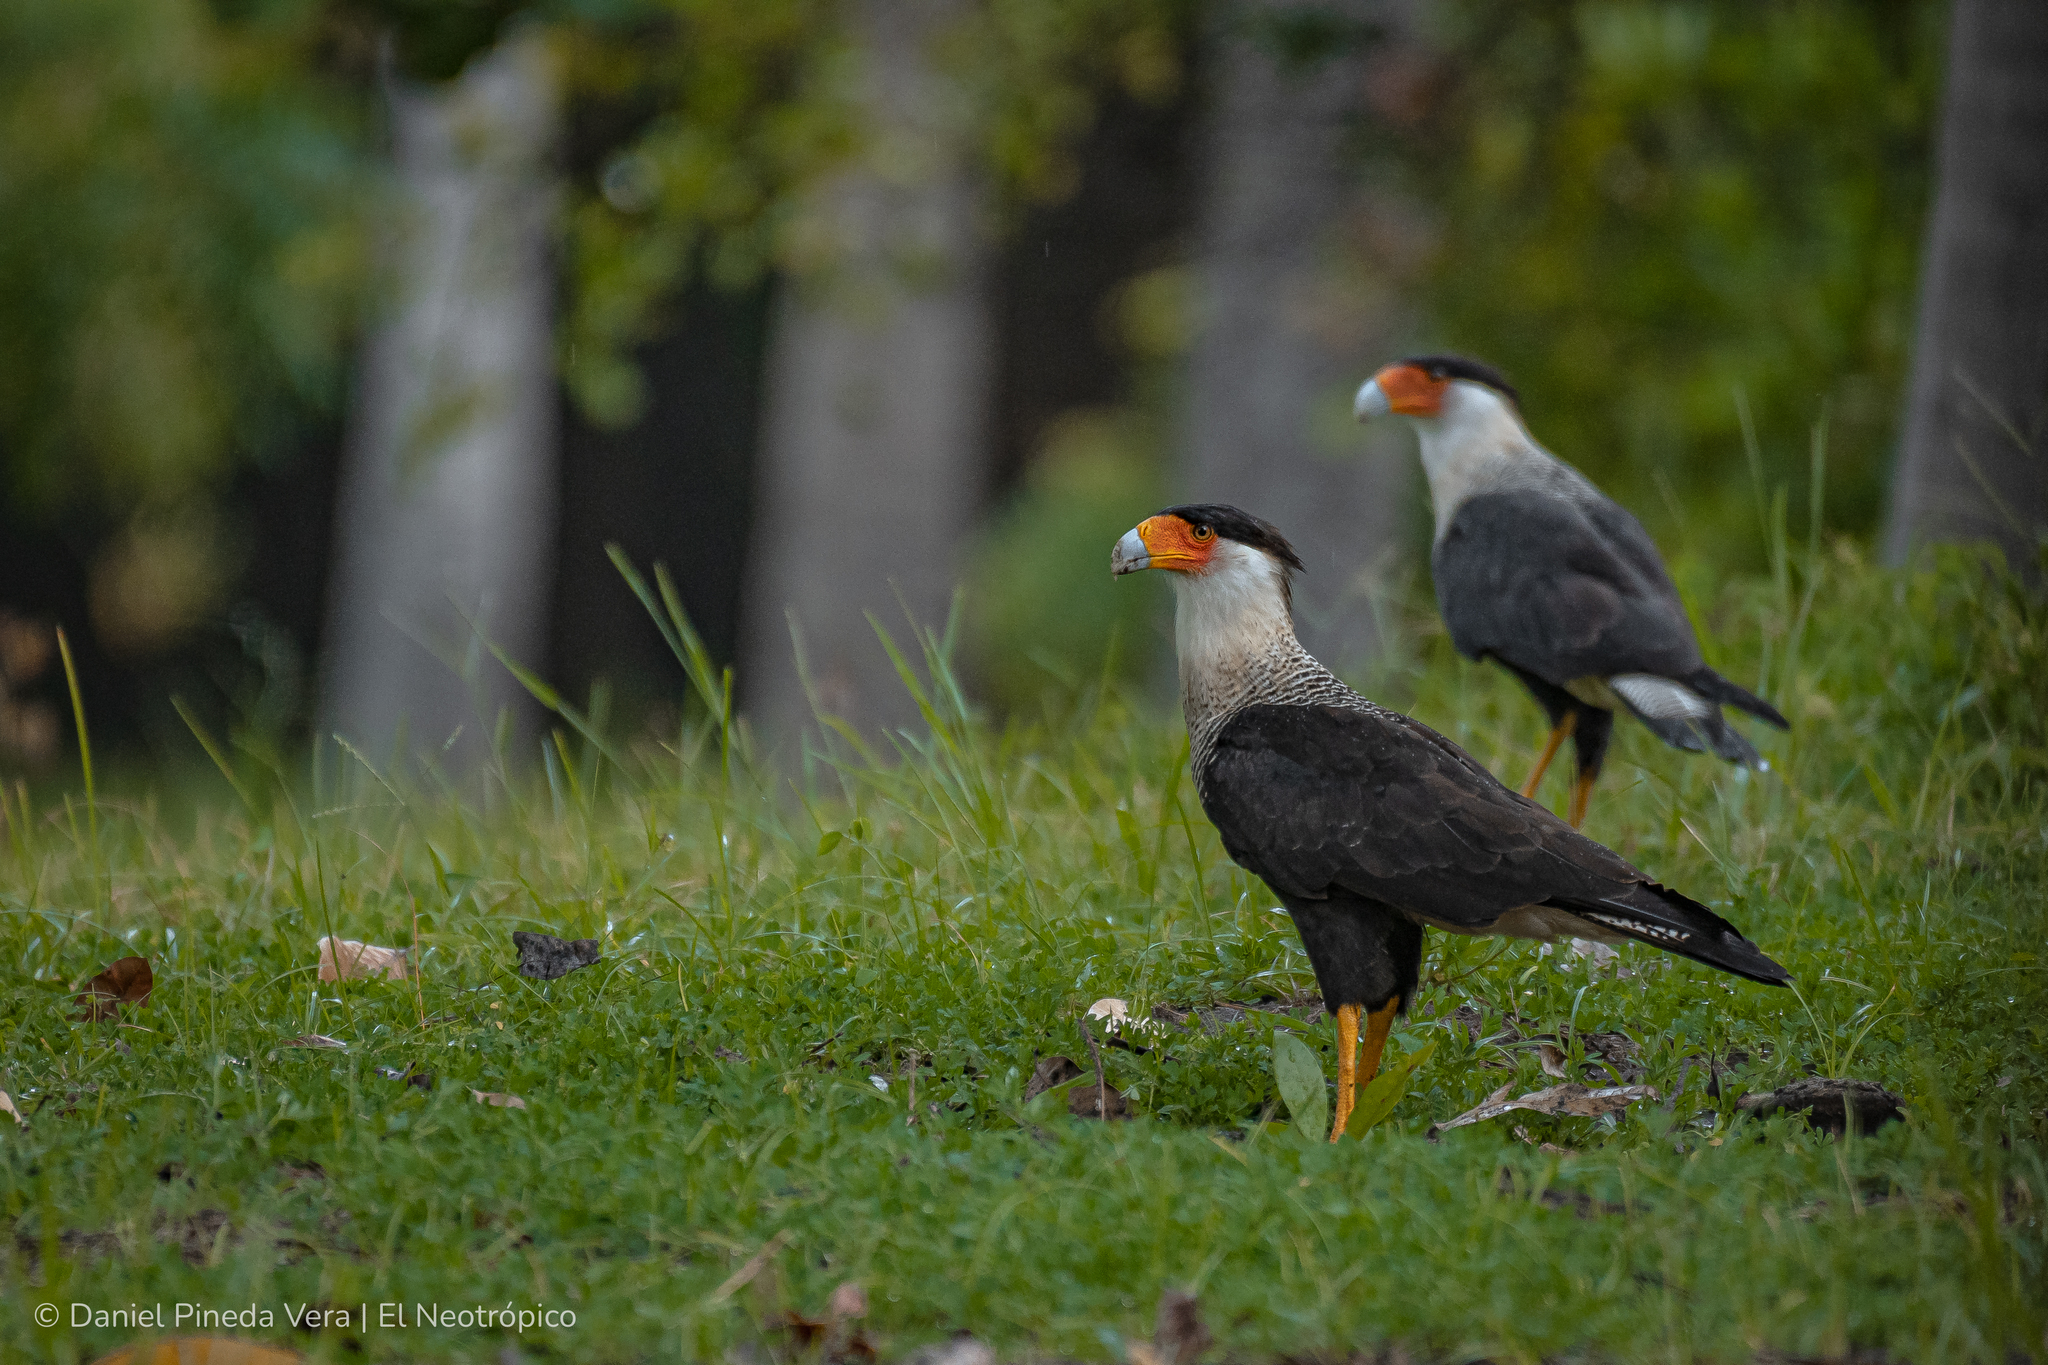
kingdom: Animalia
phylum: Chordata
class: Aves
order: Falconiformes
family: Falconidae
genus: Caracara
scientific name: Caracara plancus
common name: Southern caracara
